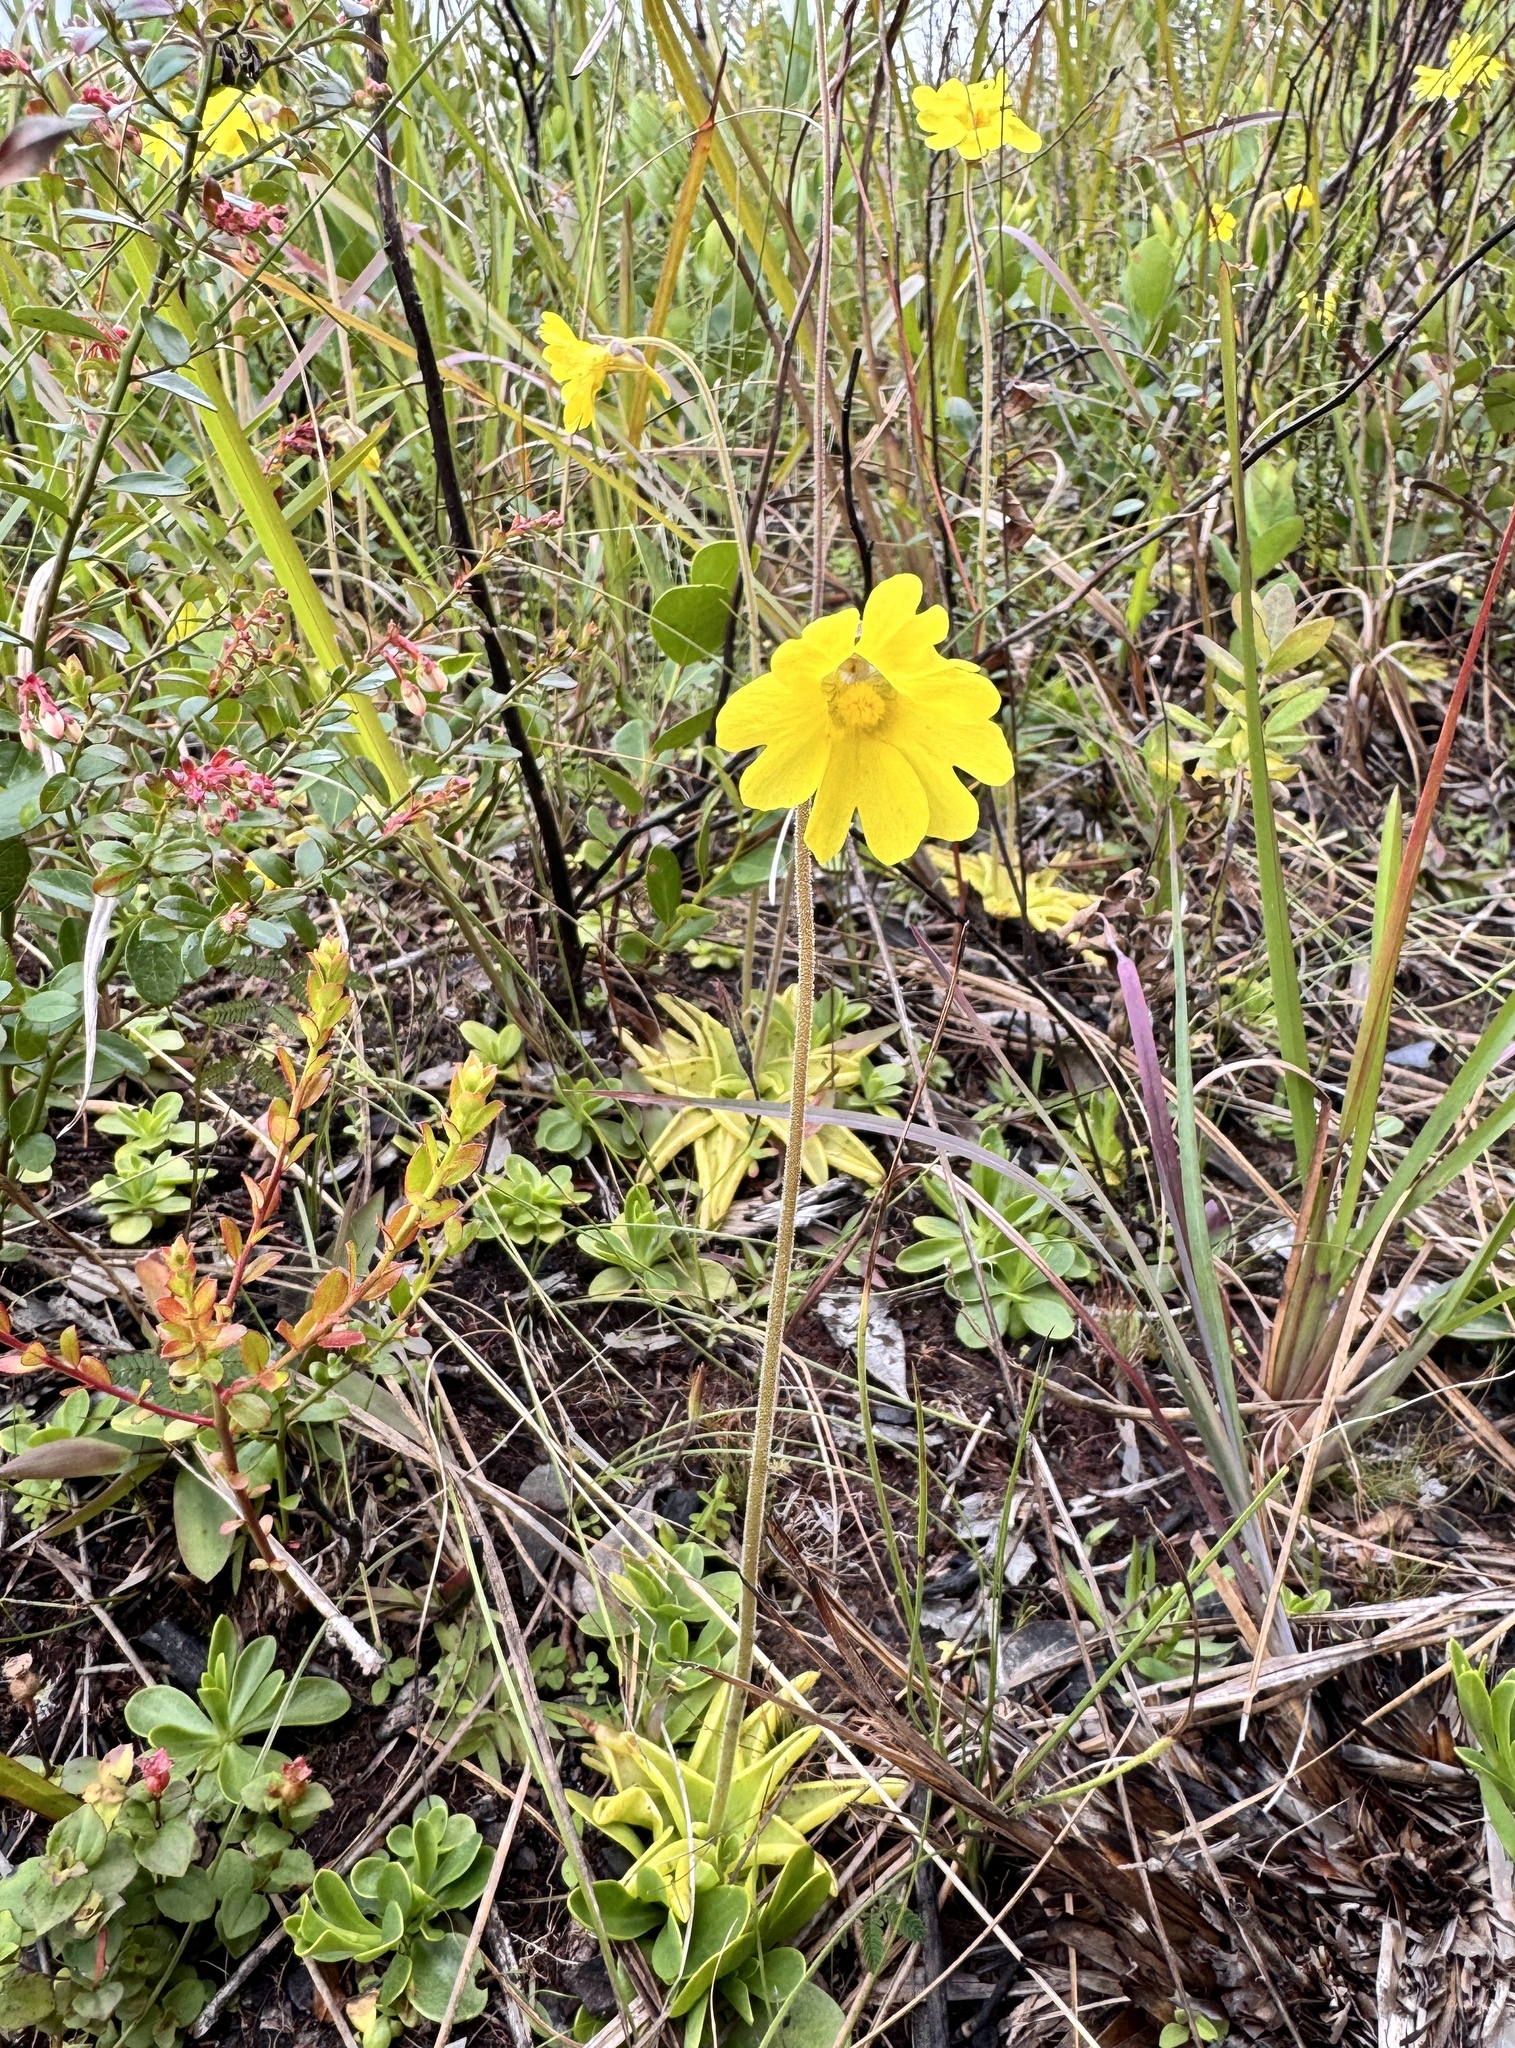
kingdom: Plantae
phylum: Tracheophyta
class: Magnoliopsida
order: Lamiales
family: Lentibulariaceae
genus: Pinguicula
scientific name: Pinguicula lutea
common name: Yellow butterwort
